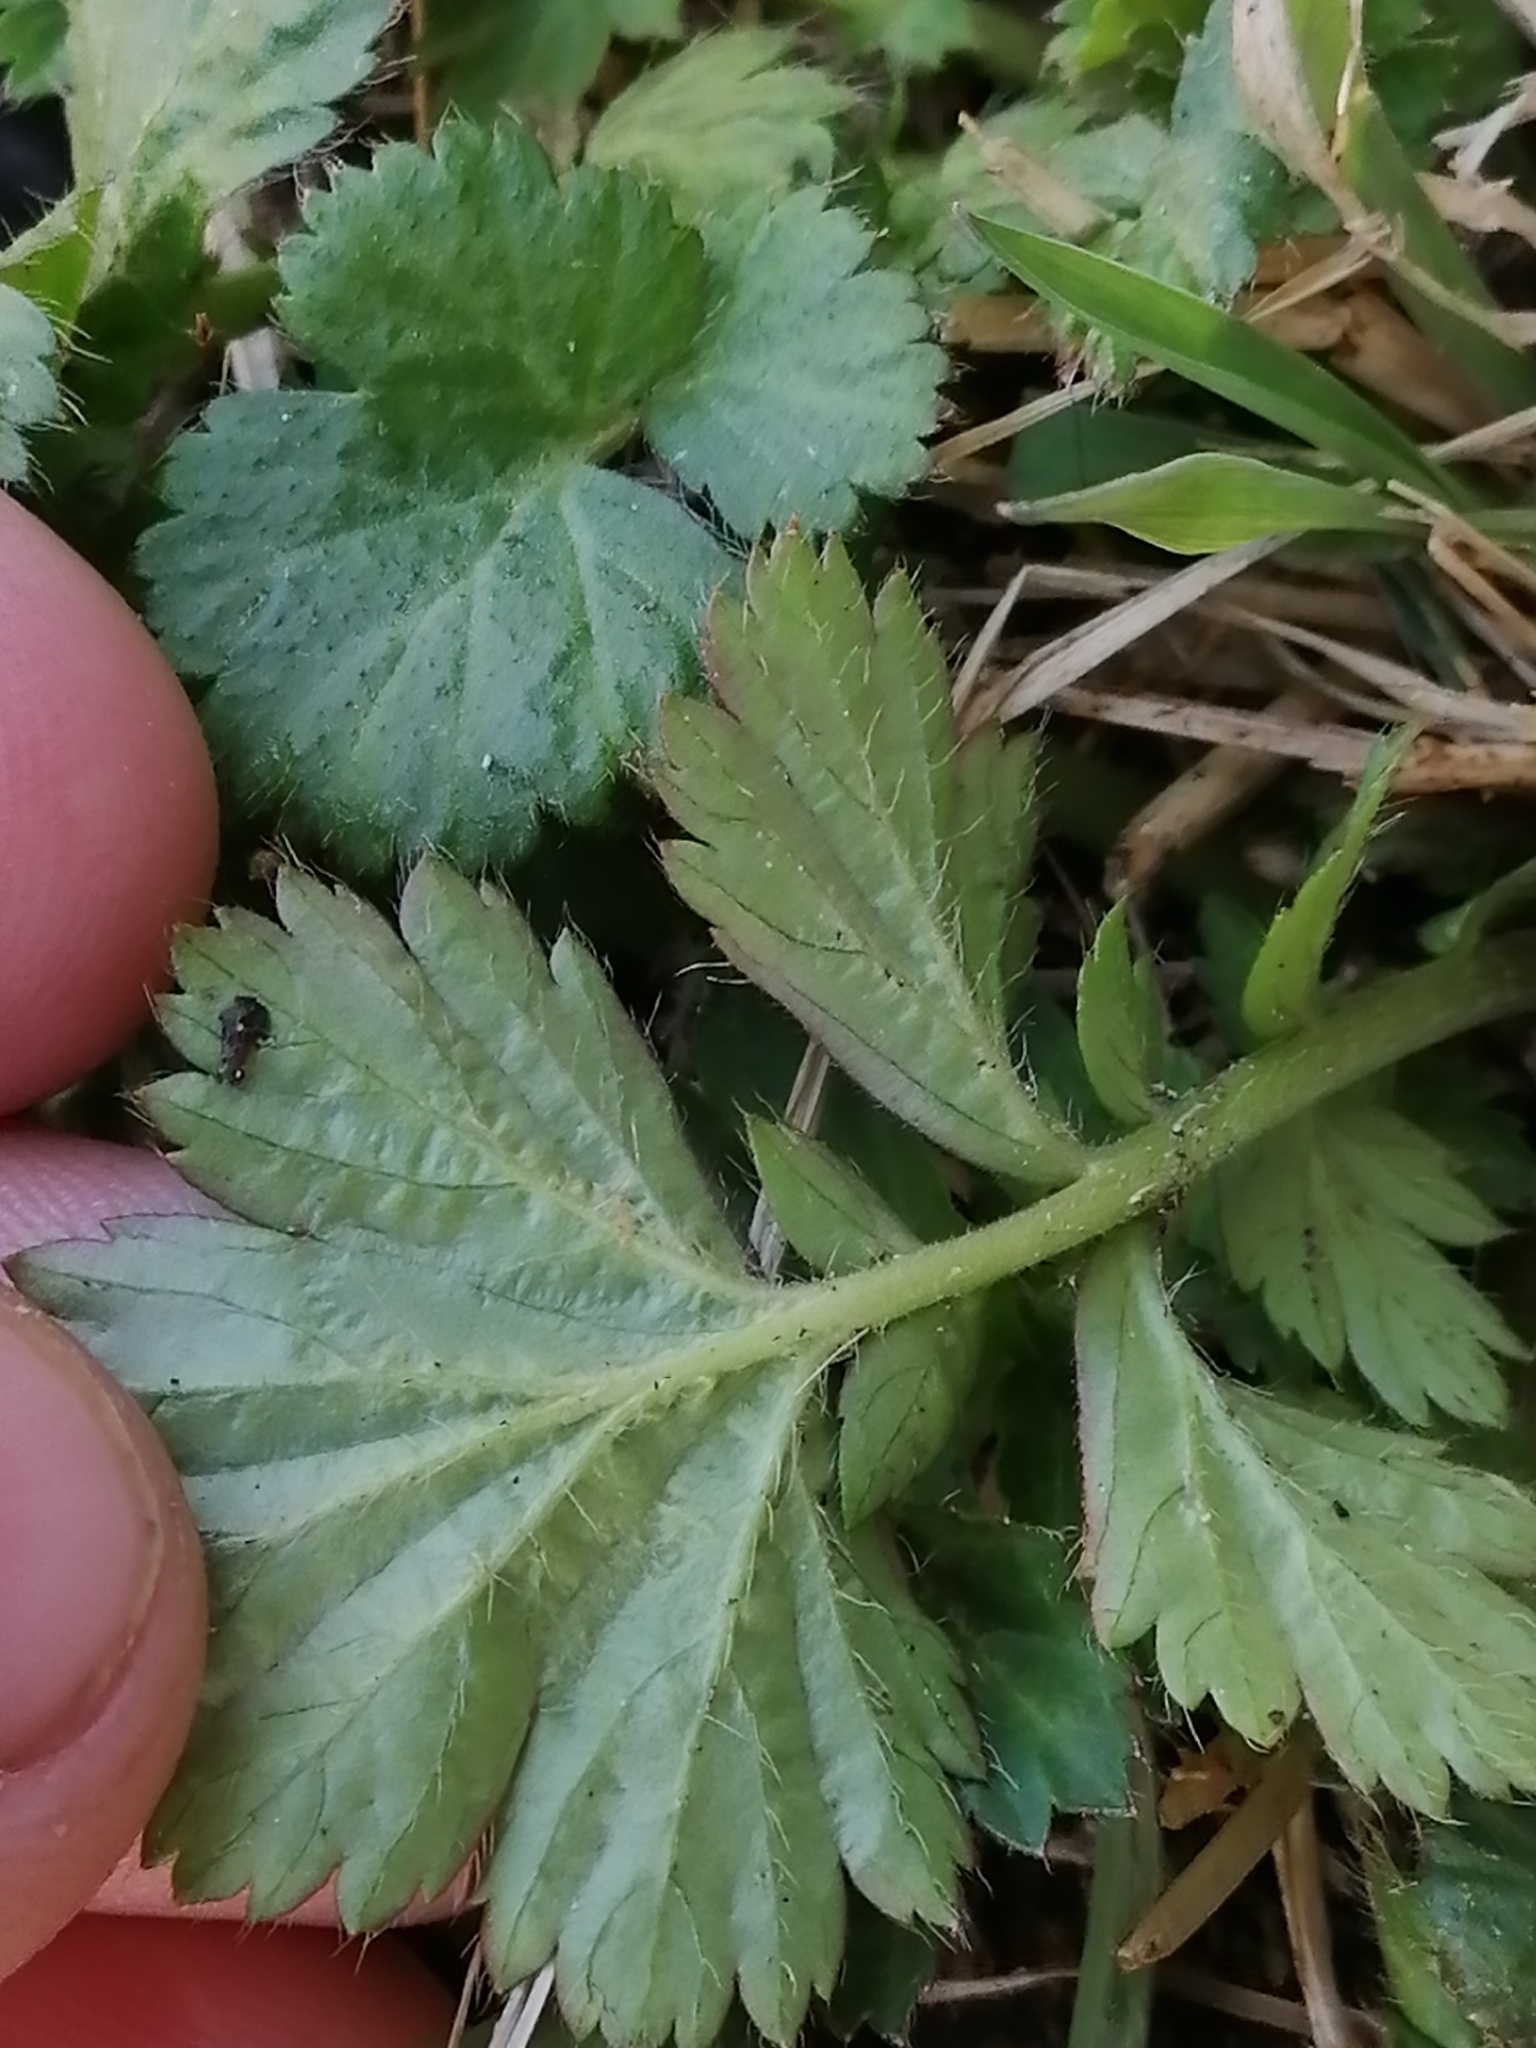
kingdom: Plantae
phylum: Tracheophyta
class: Magnoliopsida
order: Rosales
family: Rosaceae
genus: Geum
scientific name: Geum aleppicum
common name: Yellow avens
